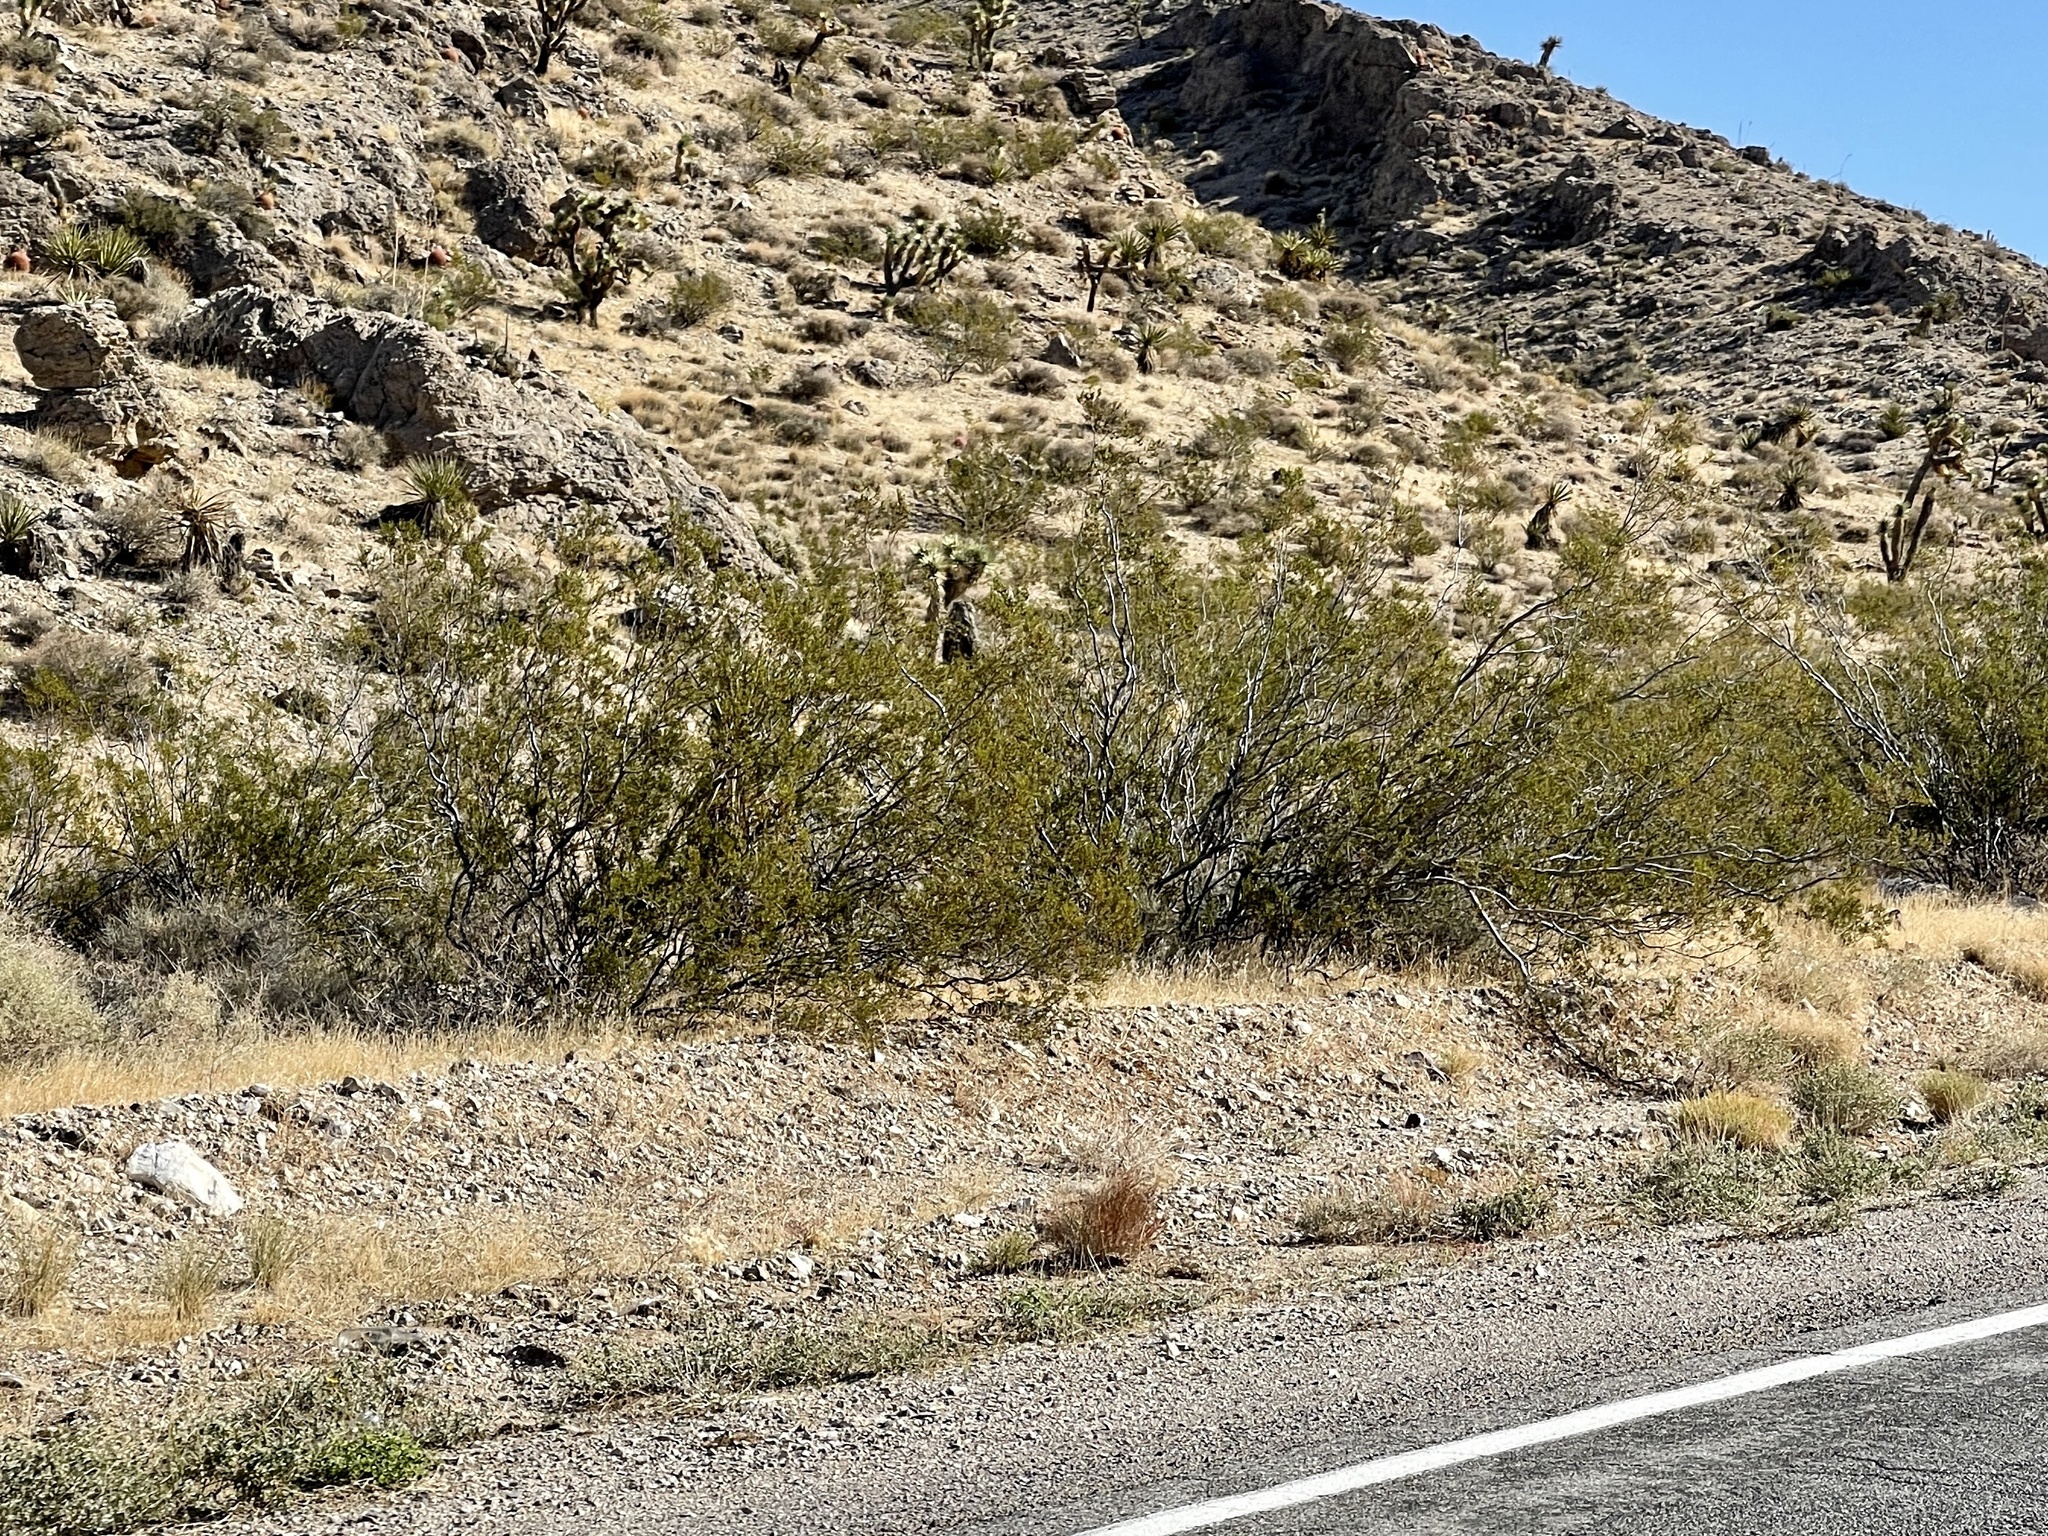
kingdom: Plantae
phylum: Tracheophyta
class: Magnoliopsida
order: Zygophyllales
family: Zygophyllaceae
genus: Larrea
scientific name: Larrea tridentata
